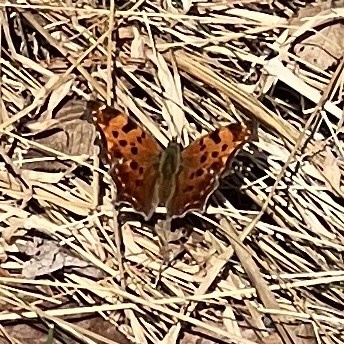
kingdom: Animalia
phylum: Arthropoda
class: Insecta
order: Lepidoptera
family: Nymphalidae
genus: Polygonia
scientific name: Polygonia comma
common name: Eastern comma
